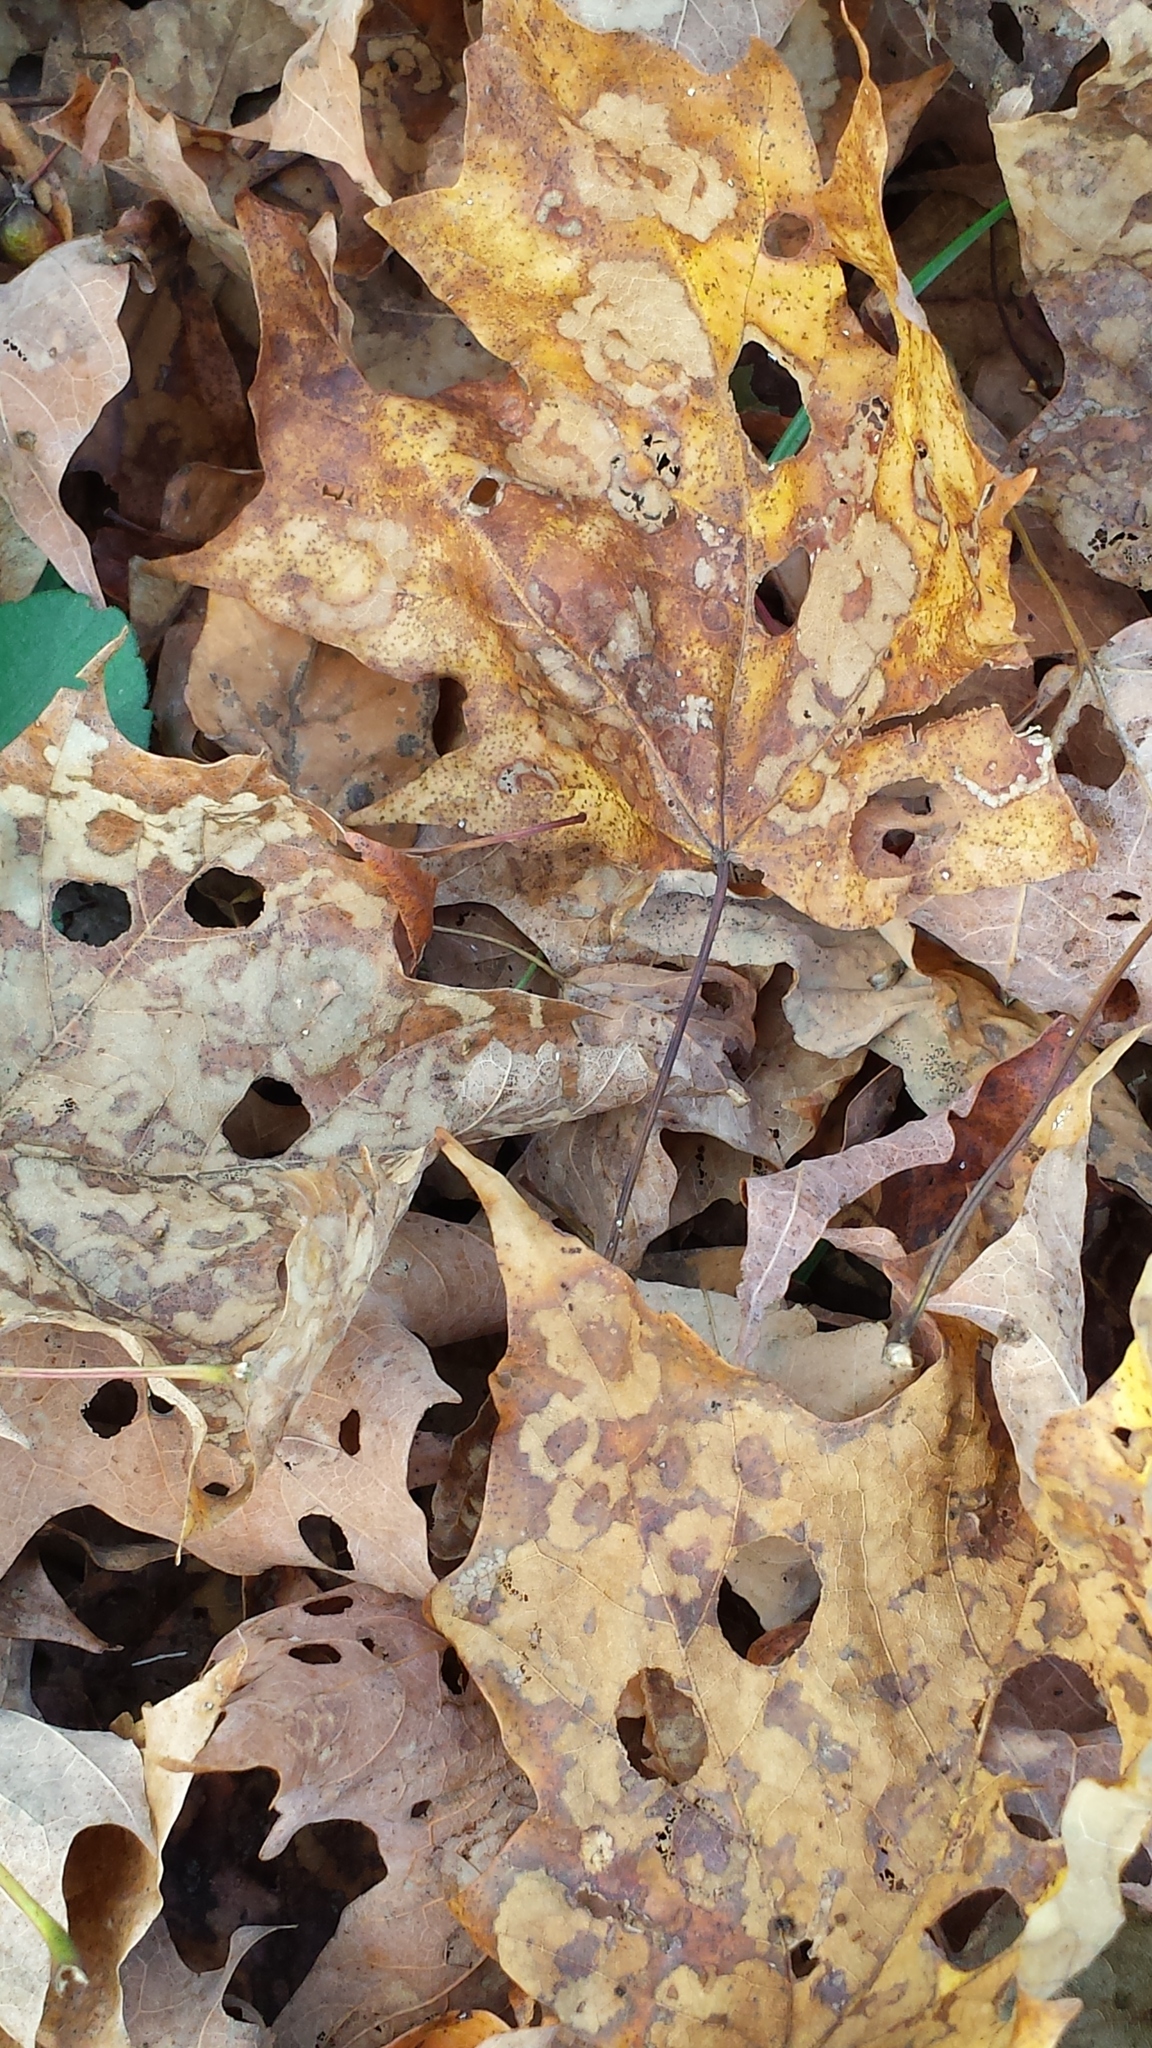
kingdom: Animalia
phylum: Arthropoda
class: Insecta
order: Lepidoptera
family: Incurvariidae
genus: Paraclemensia
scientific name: Paraclemensia acerifoliella
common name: Maple leafcutter
